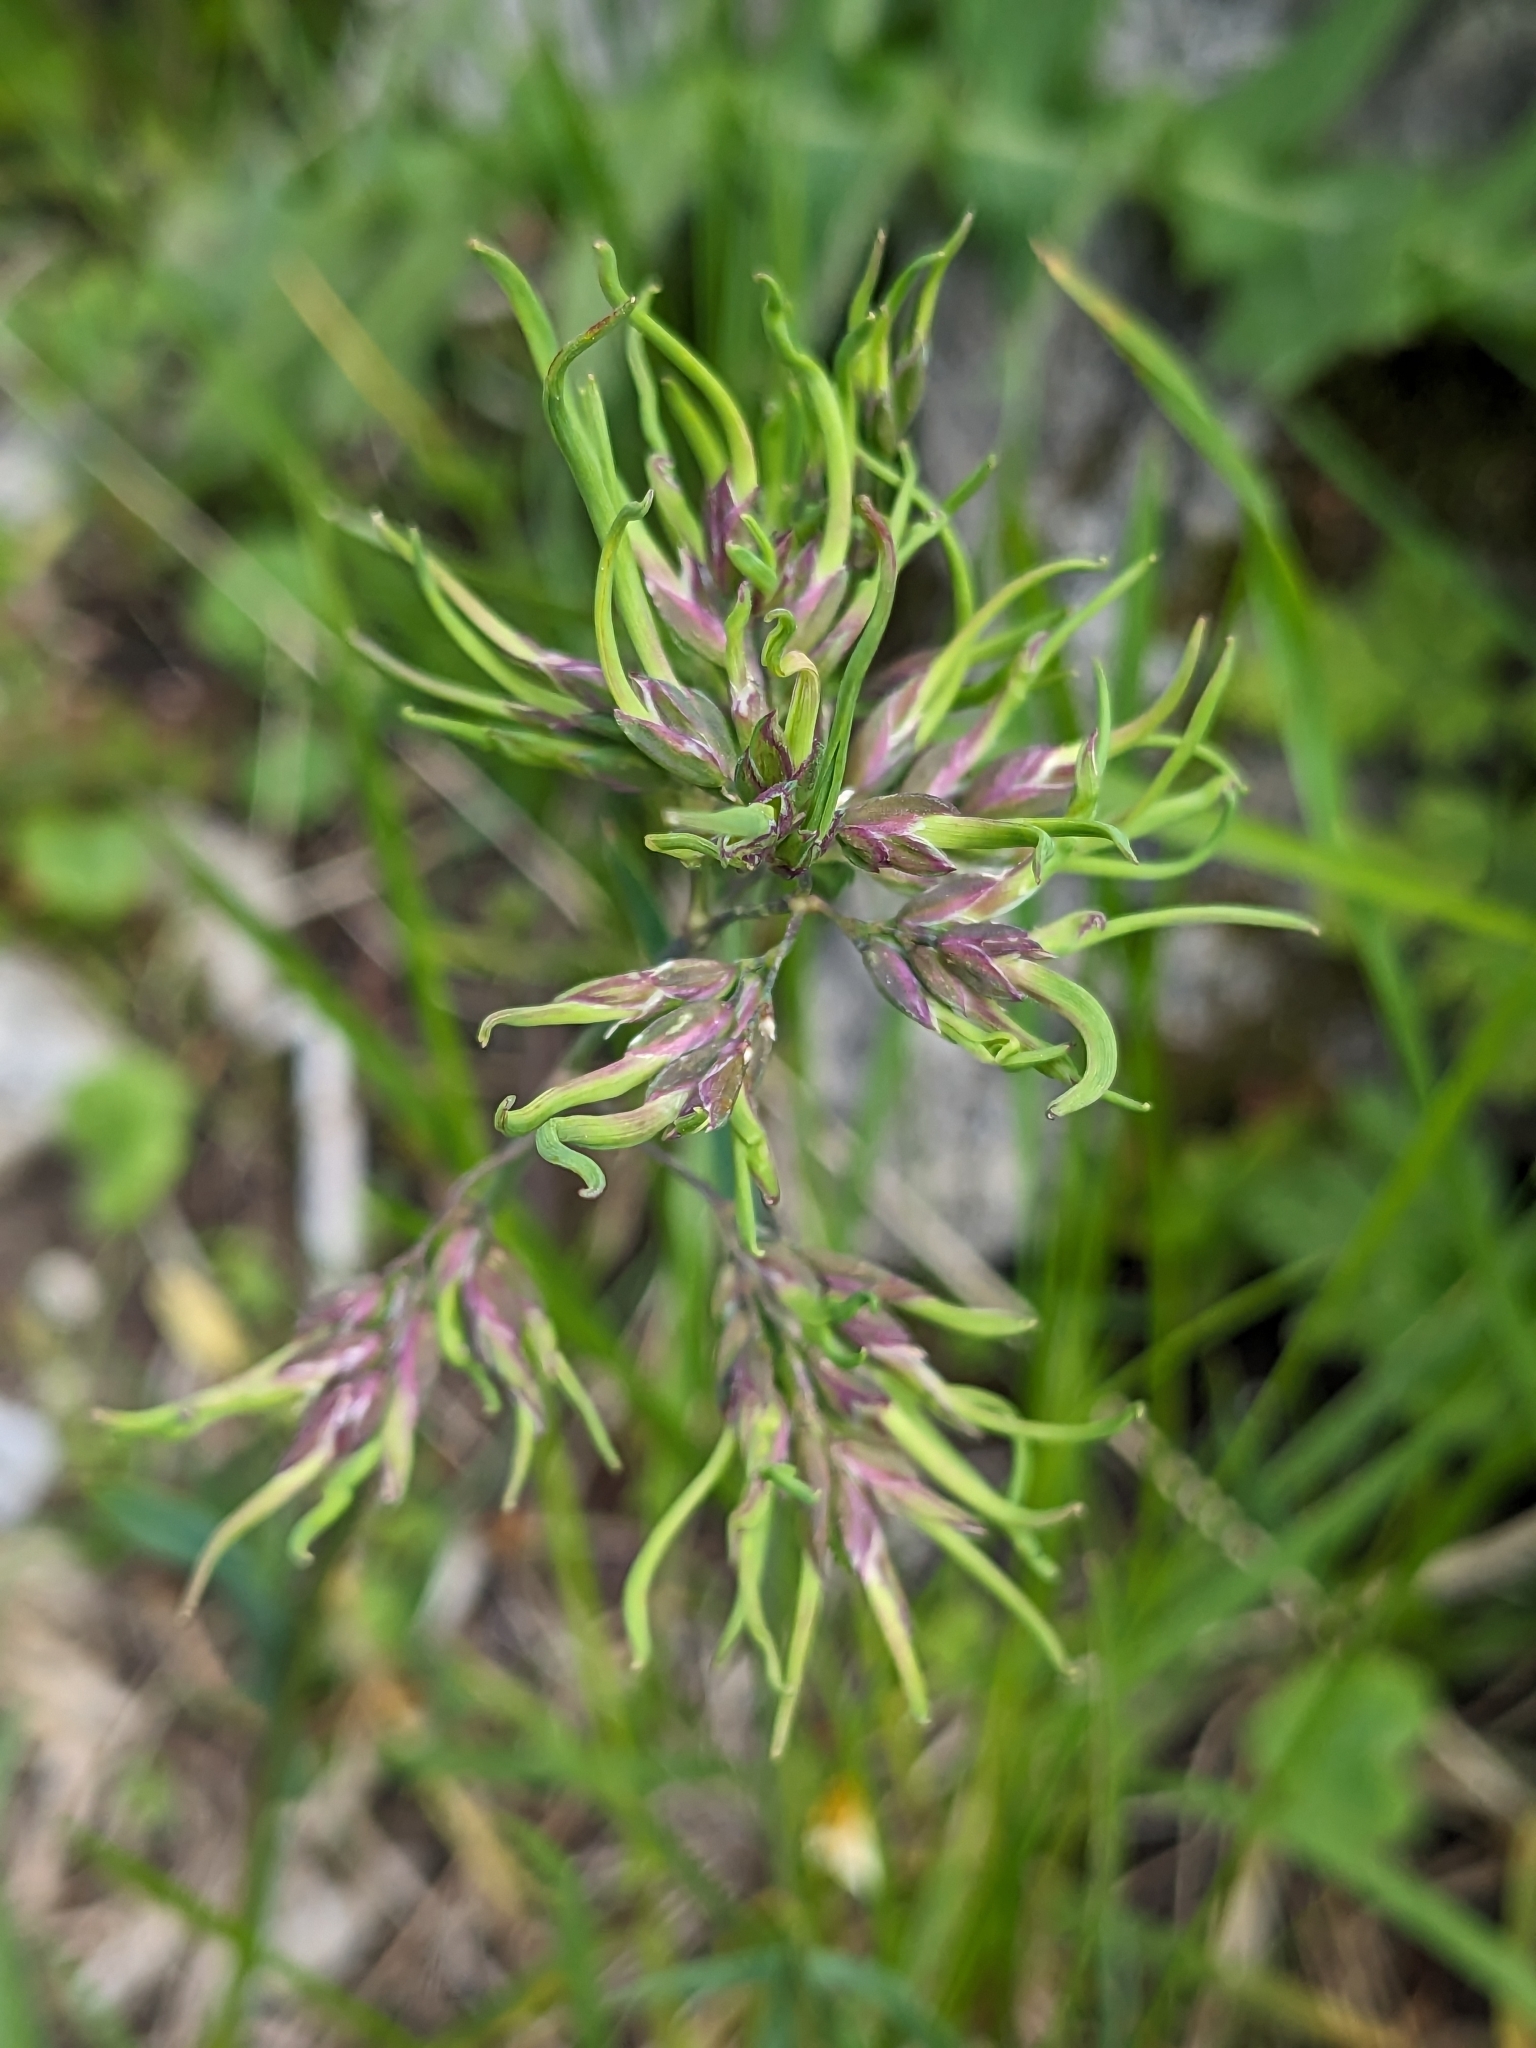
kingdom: Plantae
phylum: Tracheophyta
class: Liliopsida
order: Poales
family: Poaceae
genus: Poa
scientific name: Poa alpina
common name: Alpine bluegrass
